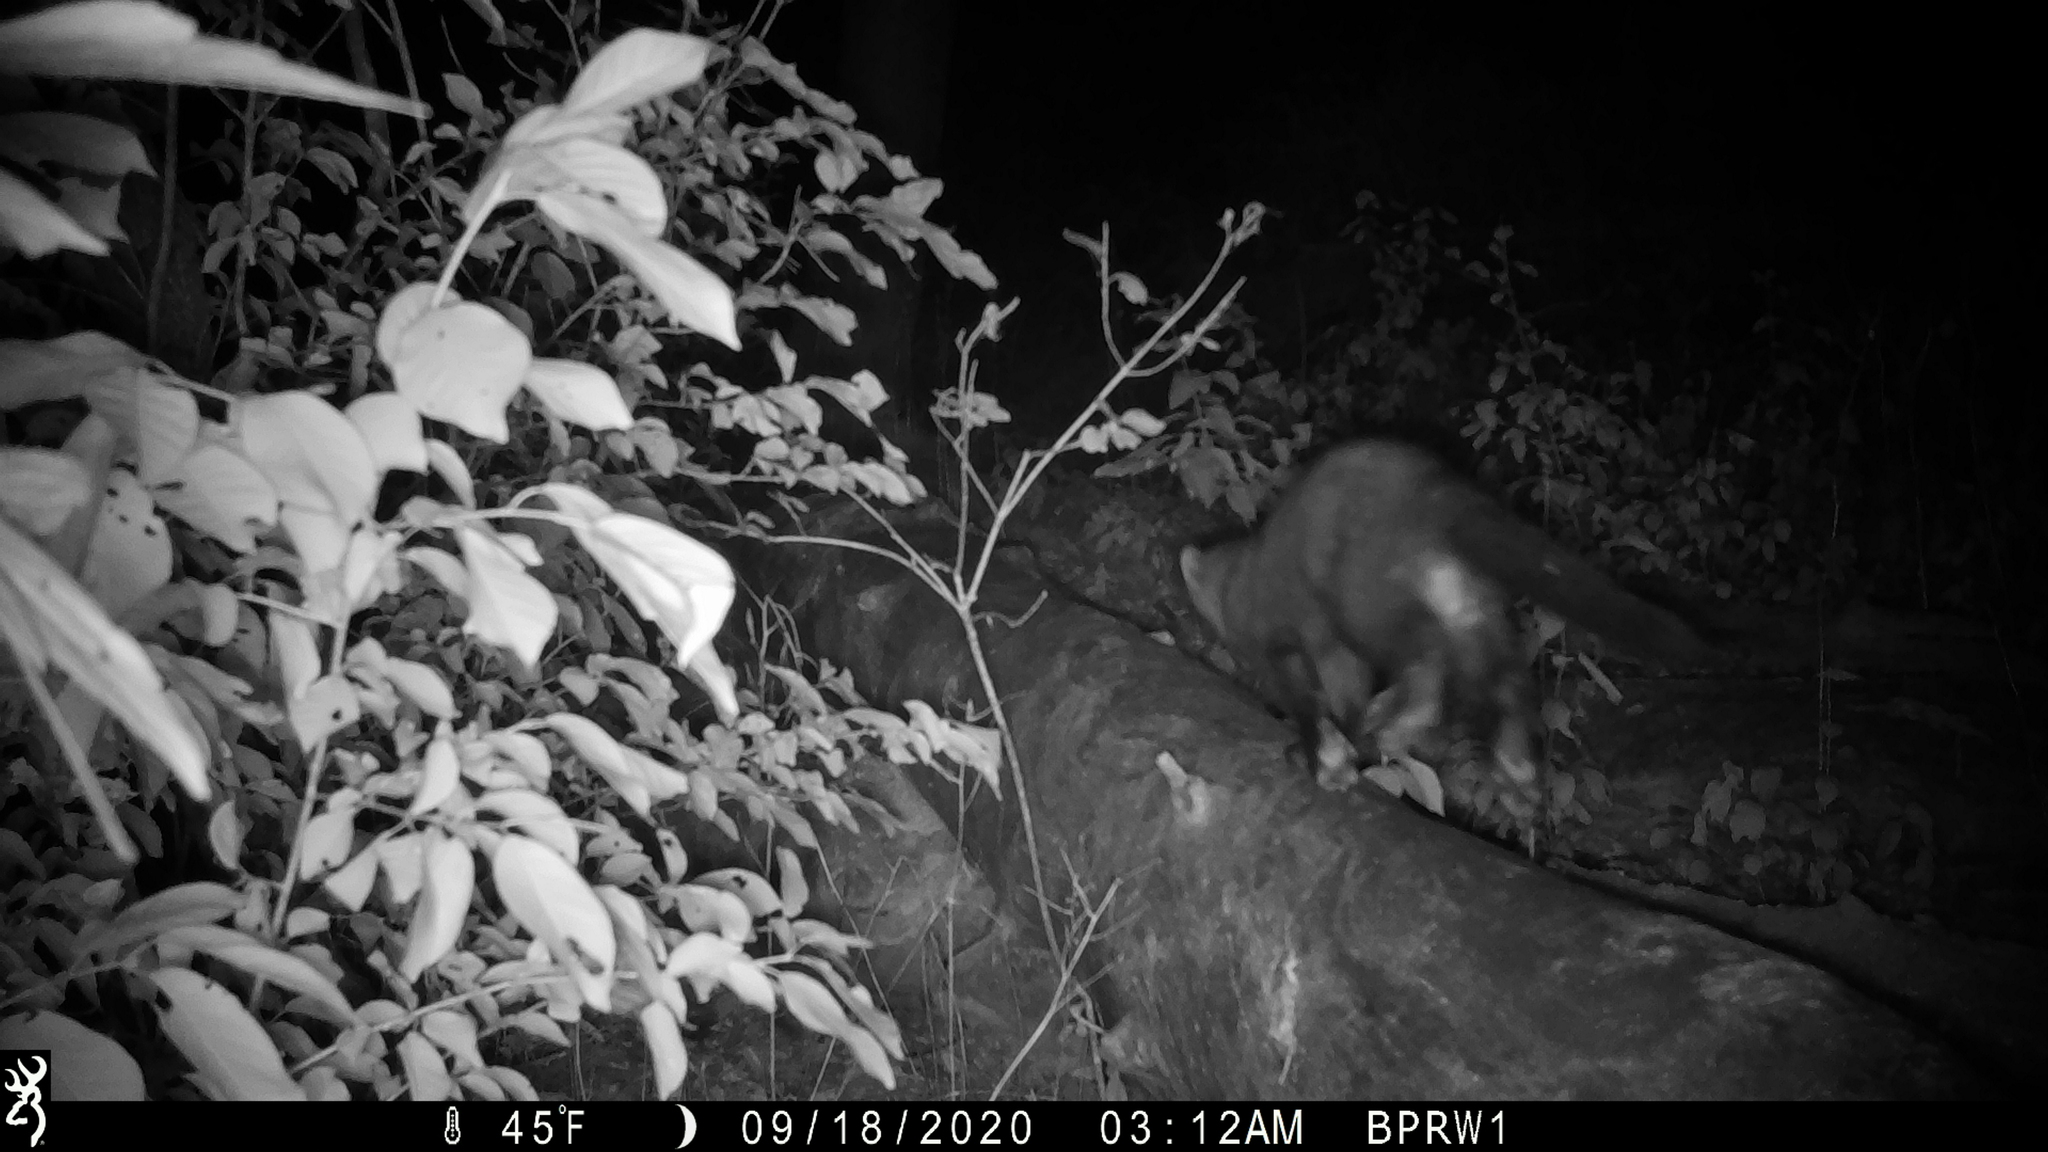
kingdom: Animalia
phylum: Chordata
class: Mammalia
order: Carnivora
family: Mustelidae
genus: Pekania
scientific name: Pekania pennanti
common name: Fisher
